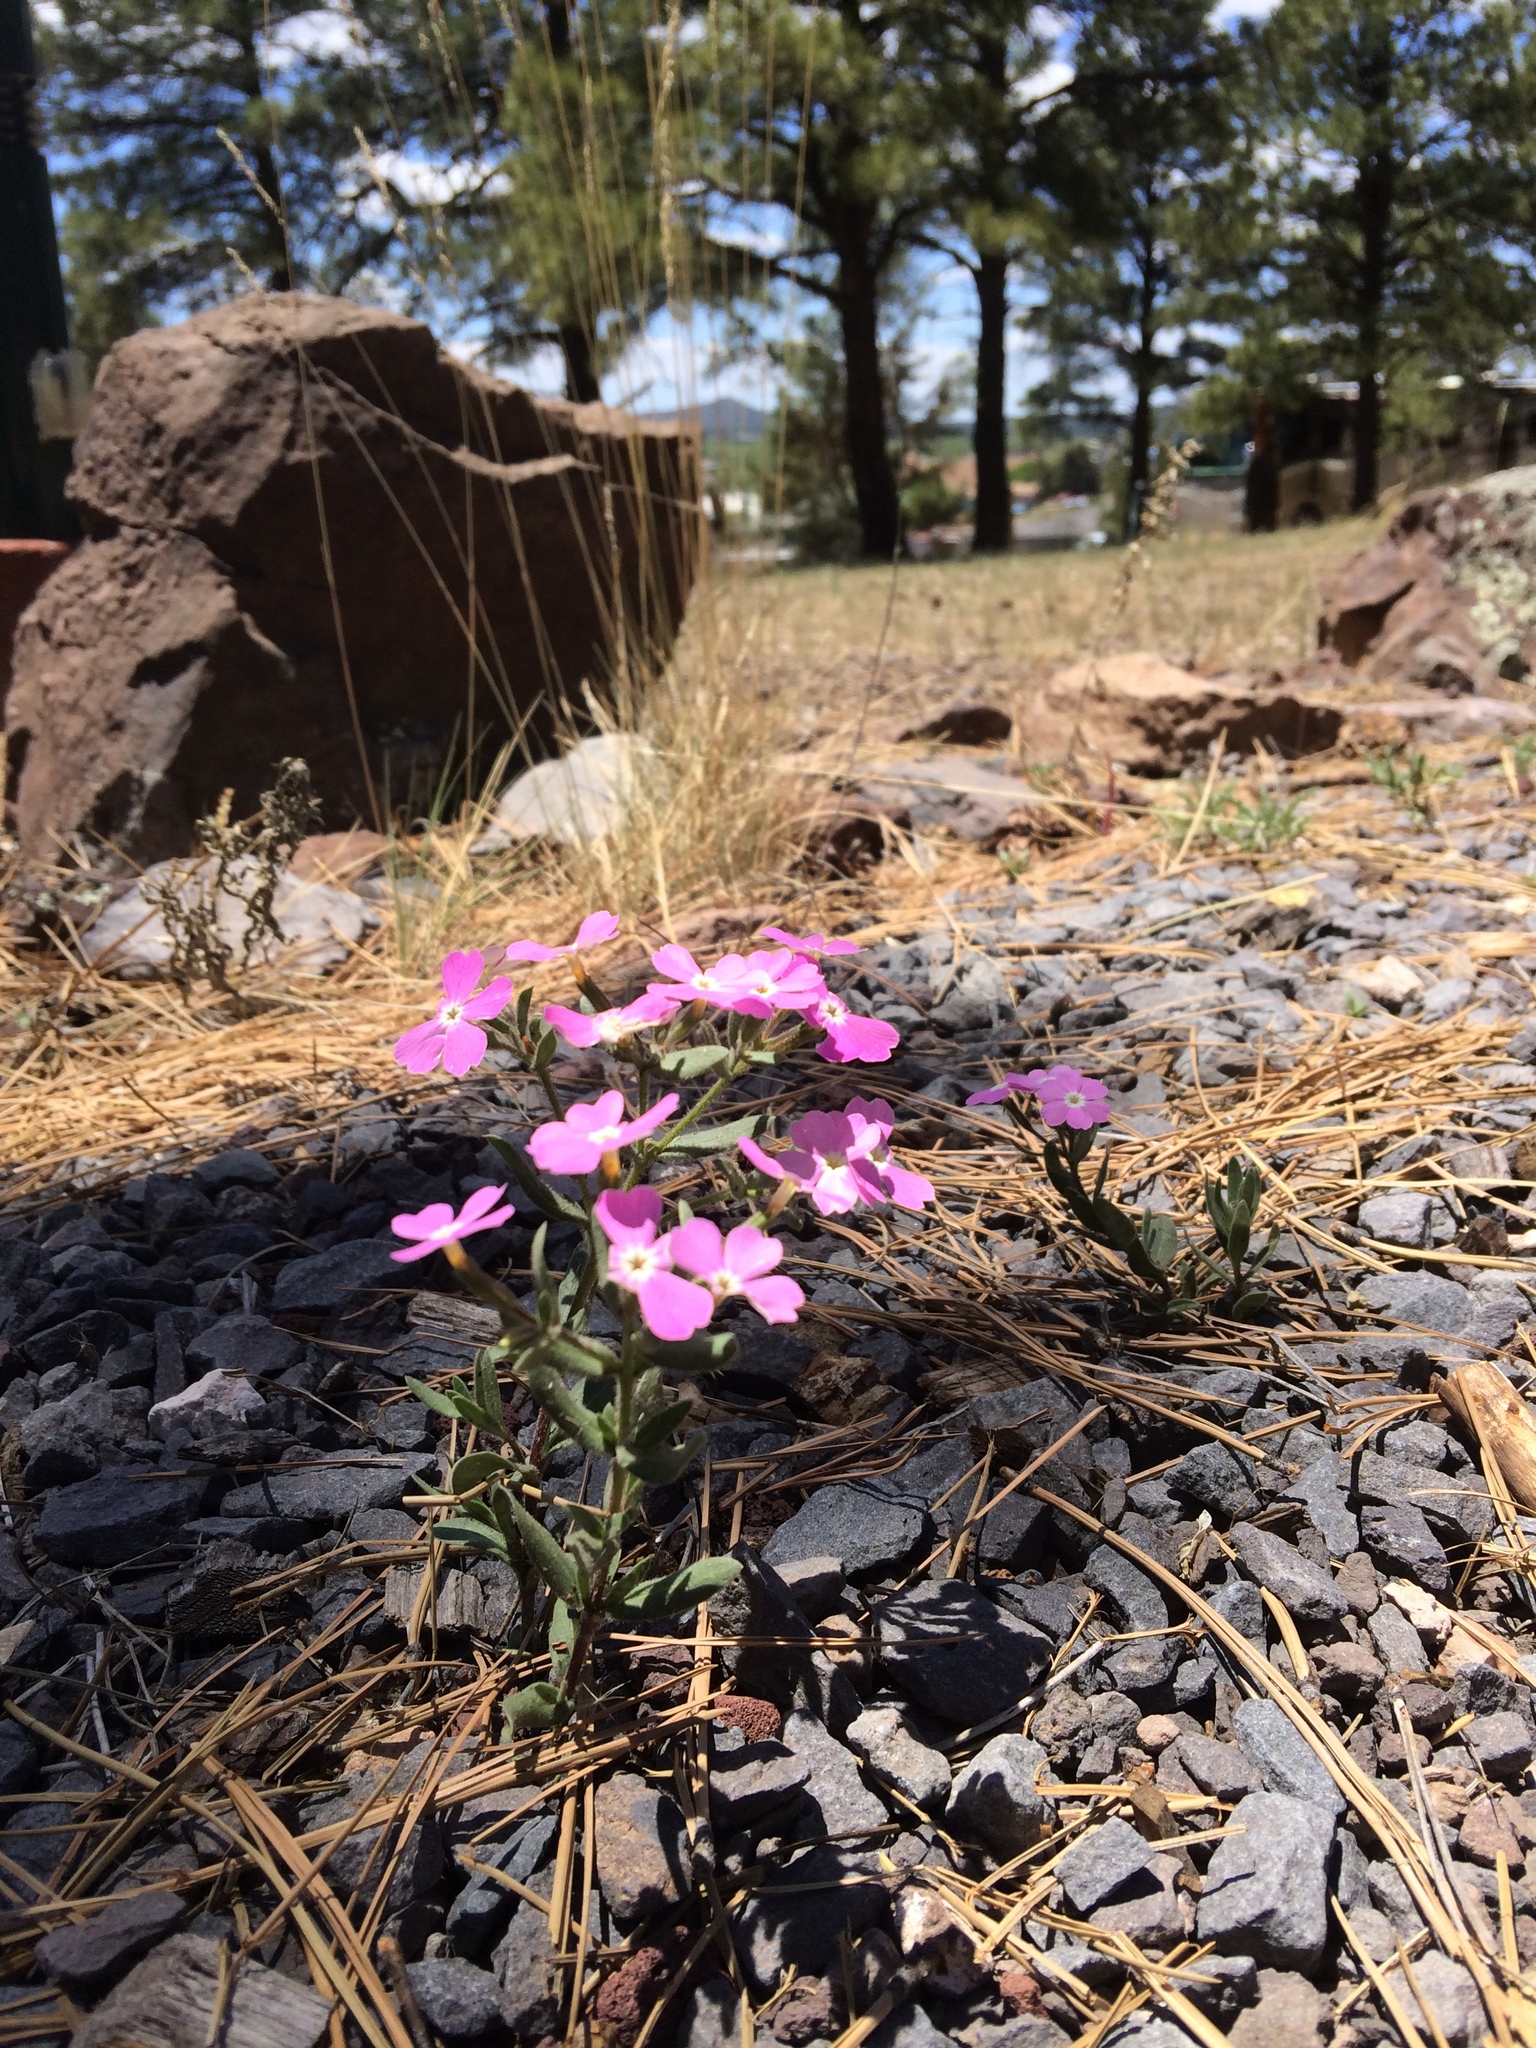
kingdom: Plantae
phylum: Tracheophyta
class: Magnoliopsida
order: Ericales
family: Polemoniaceae
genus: Phlox
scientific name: Phlox woodhousei
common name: Star phlox
